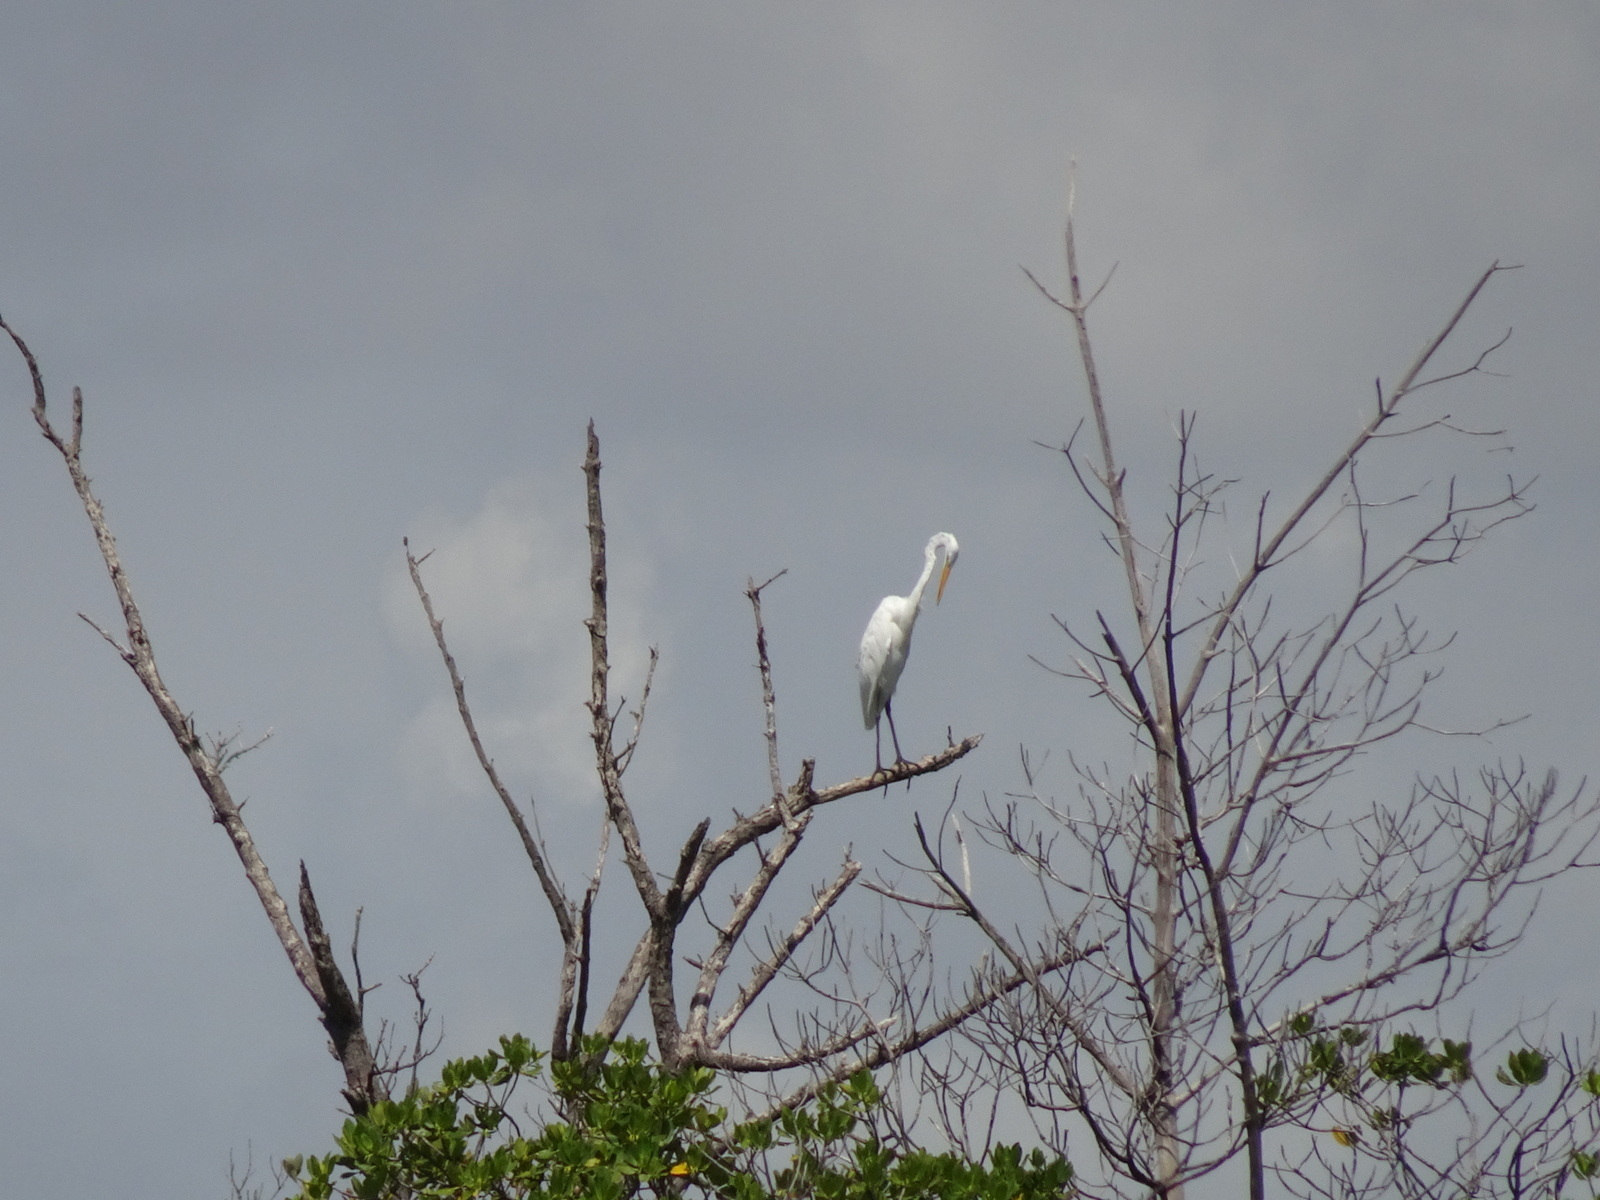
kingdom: Animalia
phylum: Chordata
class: Aves
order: Pelecaniformes
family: Ardeidae
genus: Ardea
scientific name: Ardea alba
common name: Great egret
